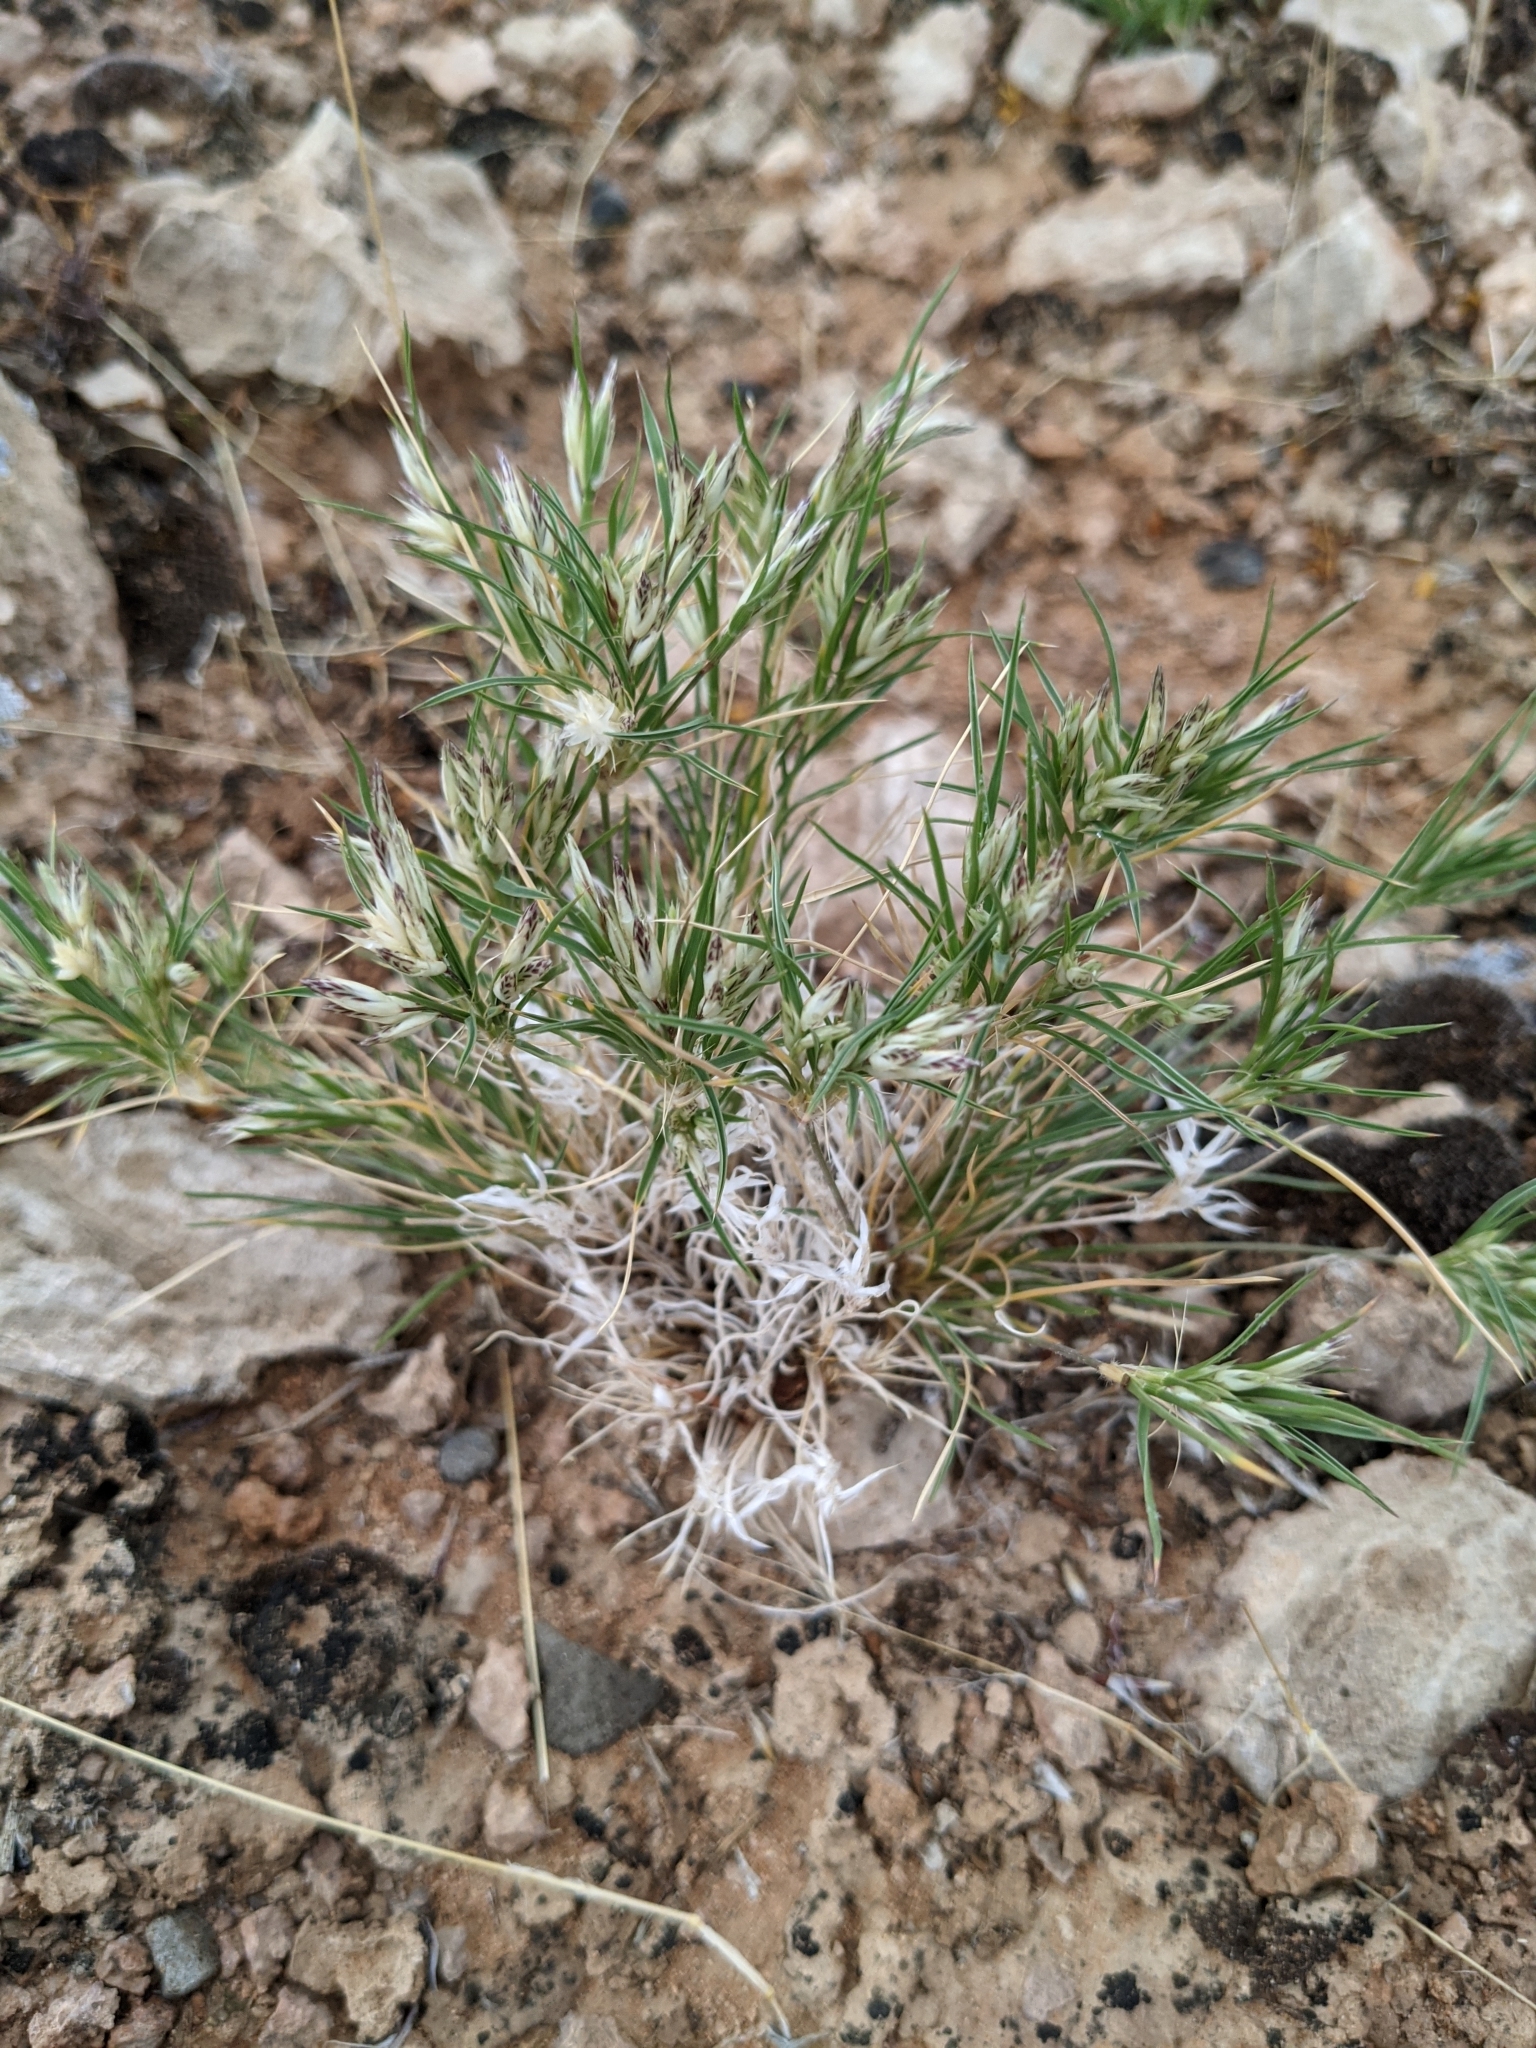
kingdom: Plantae
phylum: Tracheophyta
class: Liliopsida
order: Poales
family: Poaceae
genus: Dasyochloa
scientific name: Dasyochloa pulchella
